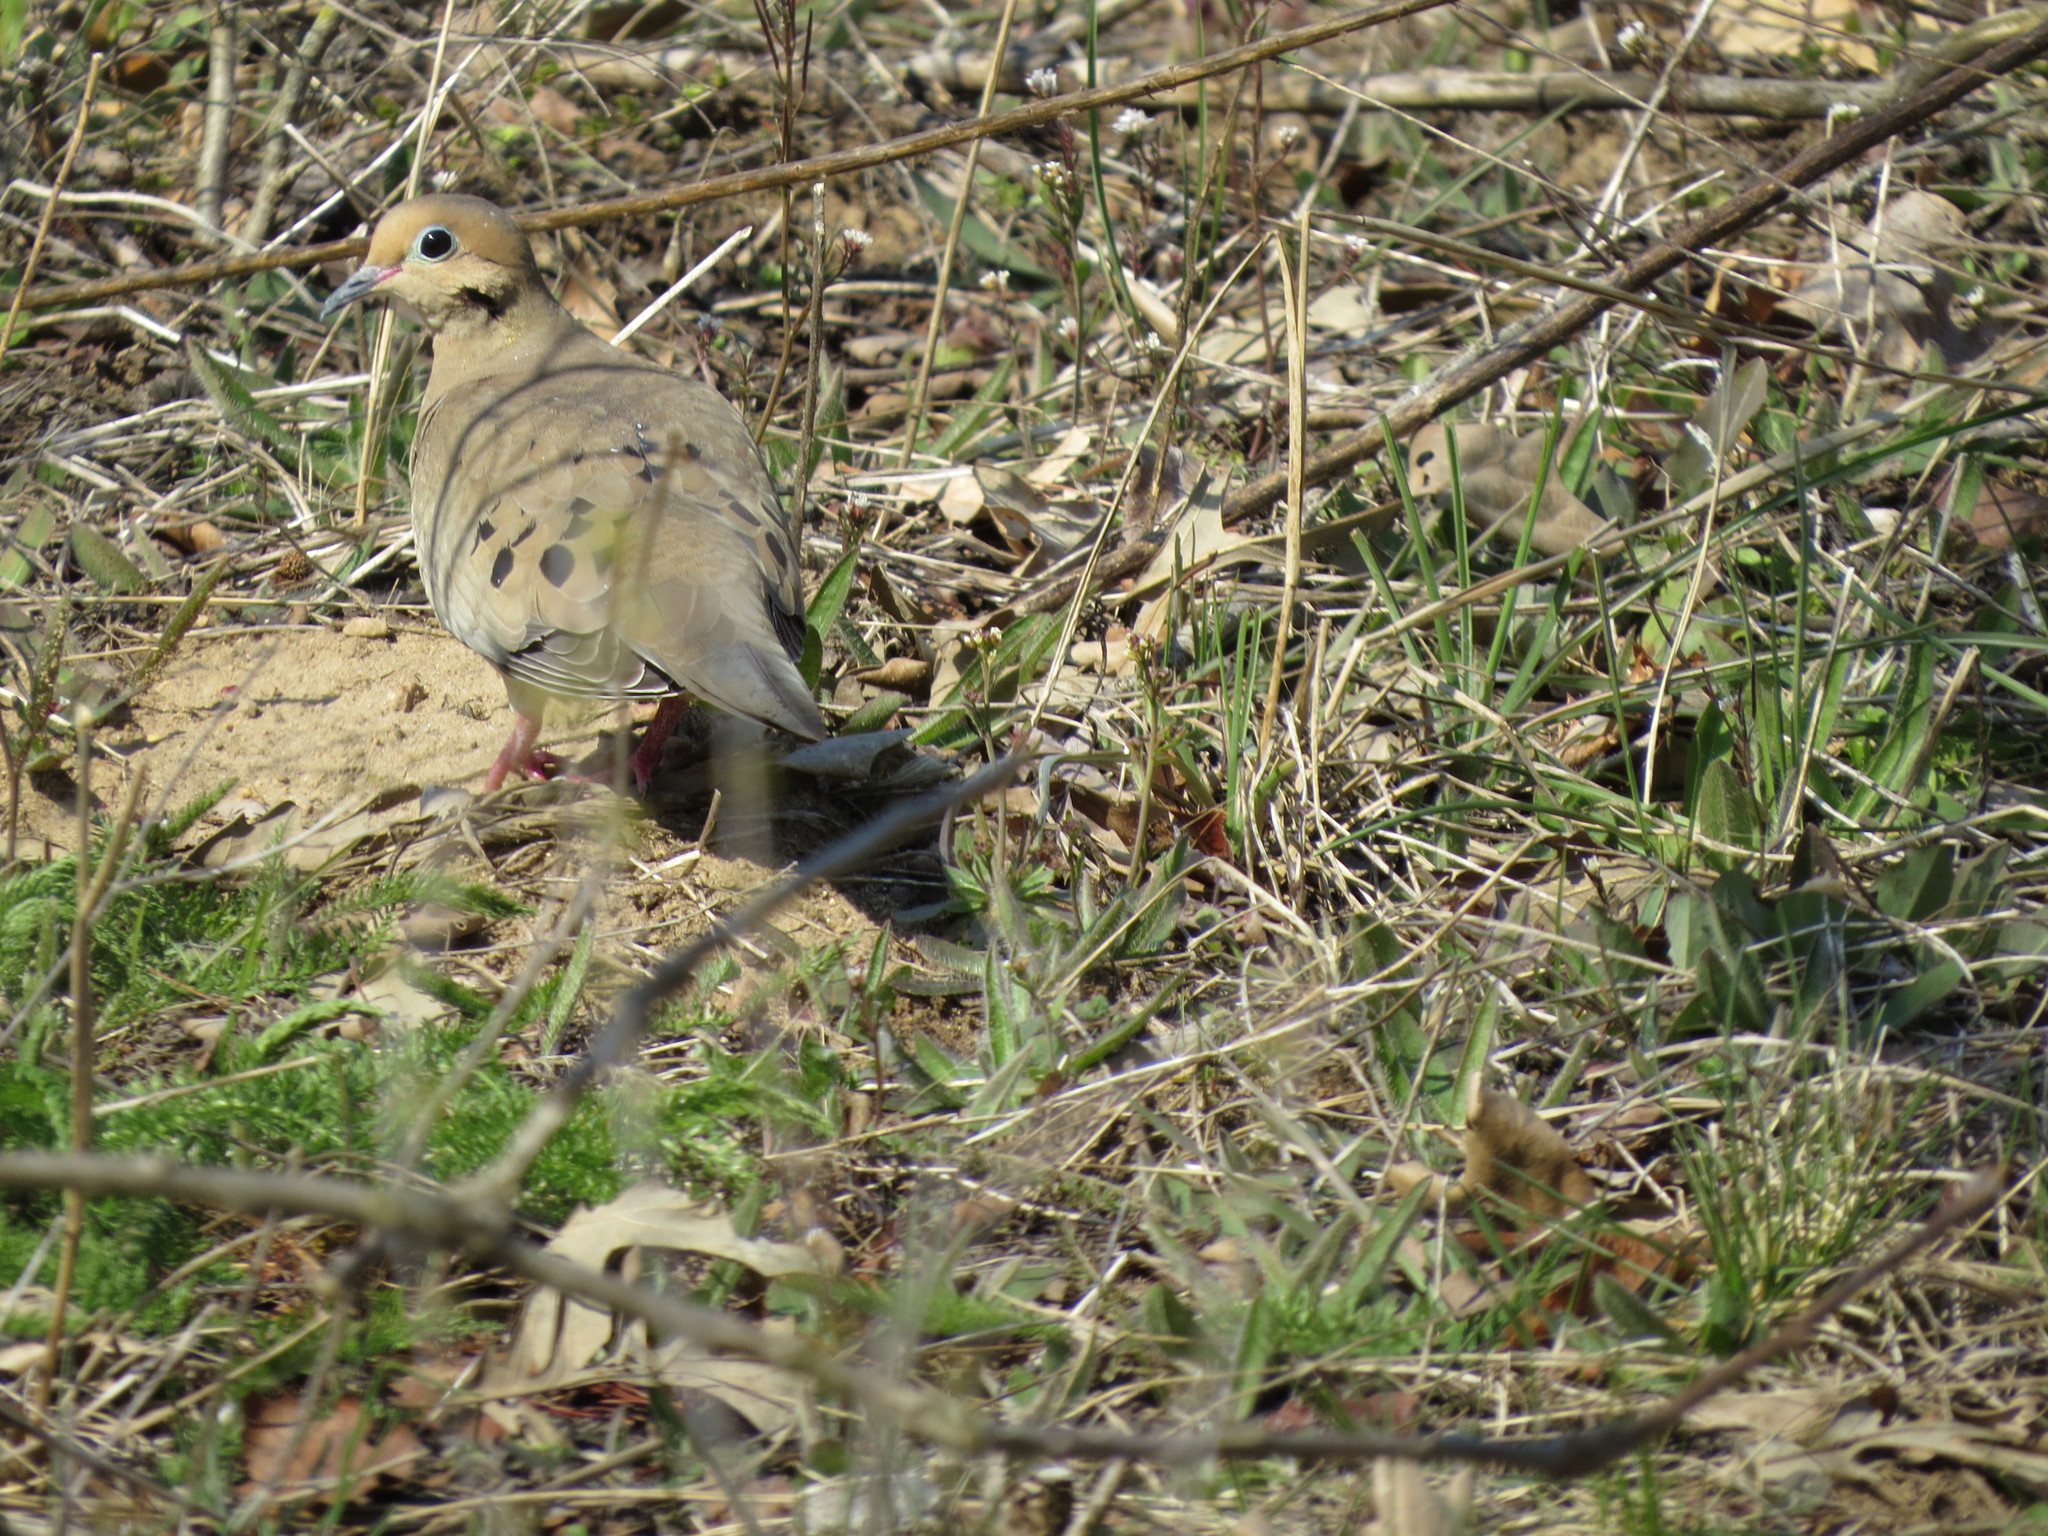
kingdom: Animalia
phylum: Chordata
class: Aves
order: Columbiformes
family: Columbidae
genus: Zenaida
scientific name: Zenaida macroura
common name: Mourning dove
